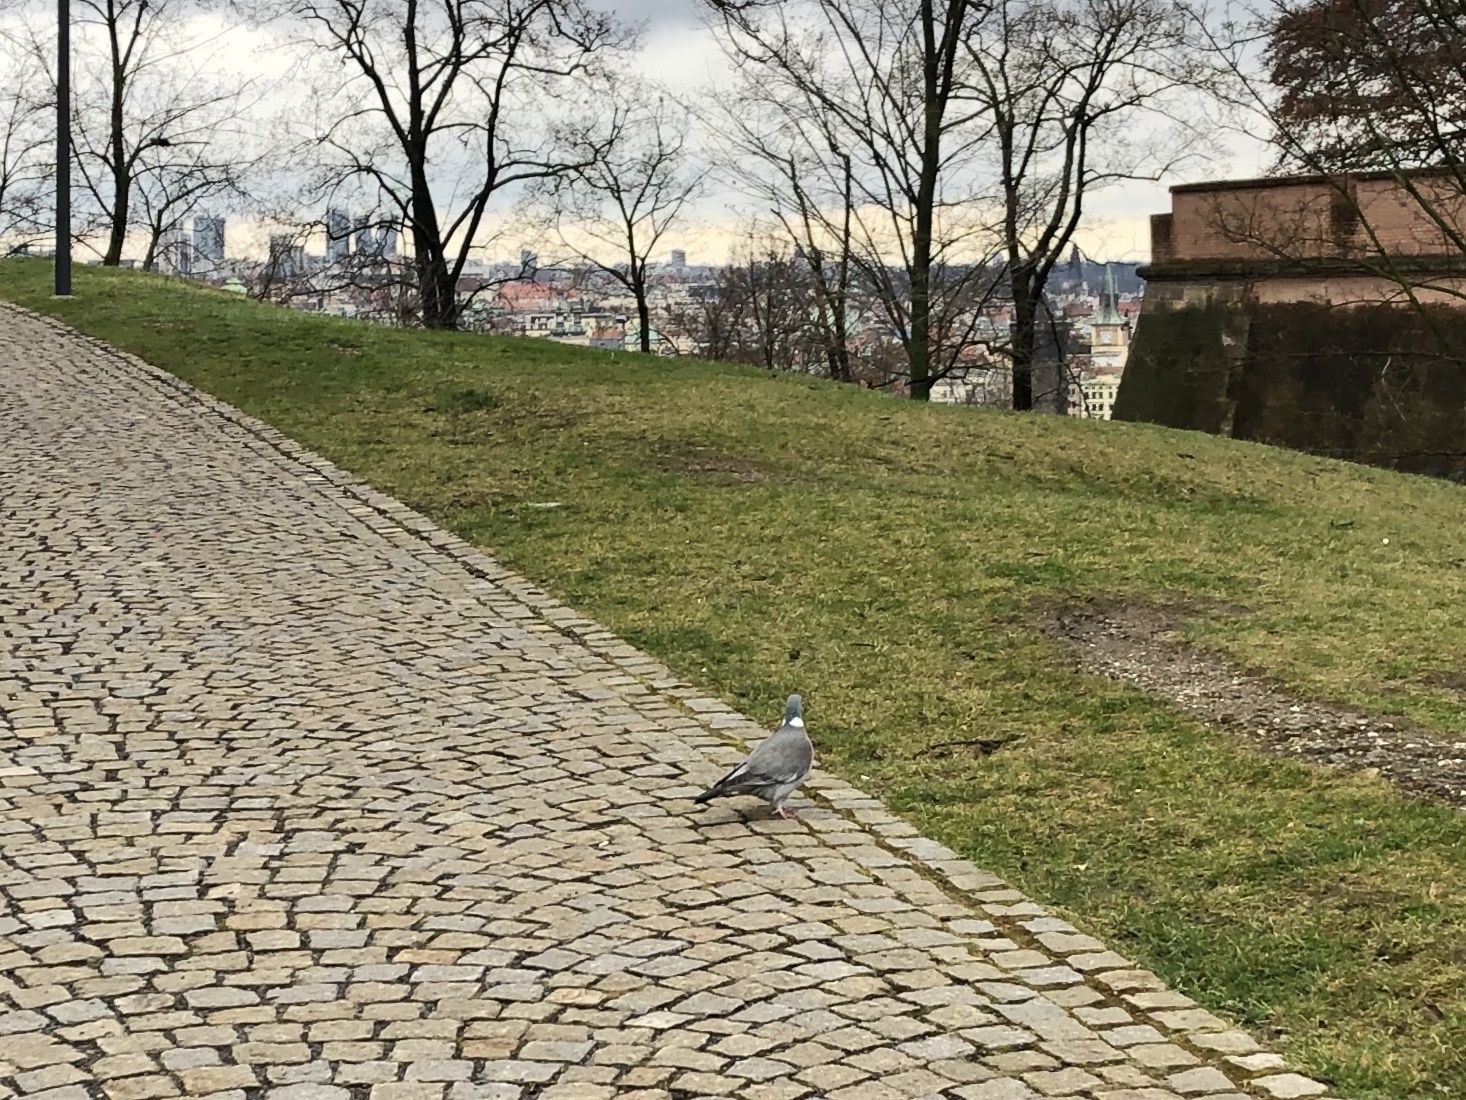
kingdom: Animalia
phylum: Chordata
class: Aves
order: Columbiformes
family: Columbidae
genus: Columba
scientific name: Columba palumbus
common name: Common wood pigeon
